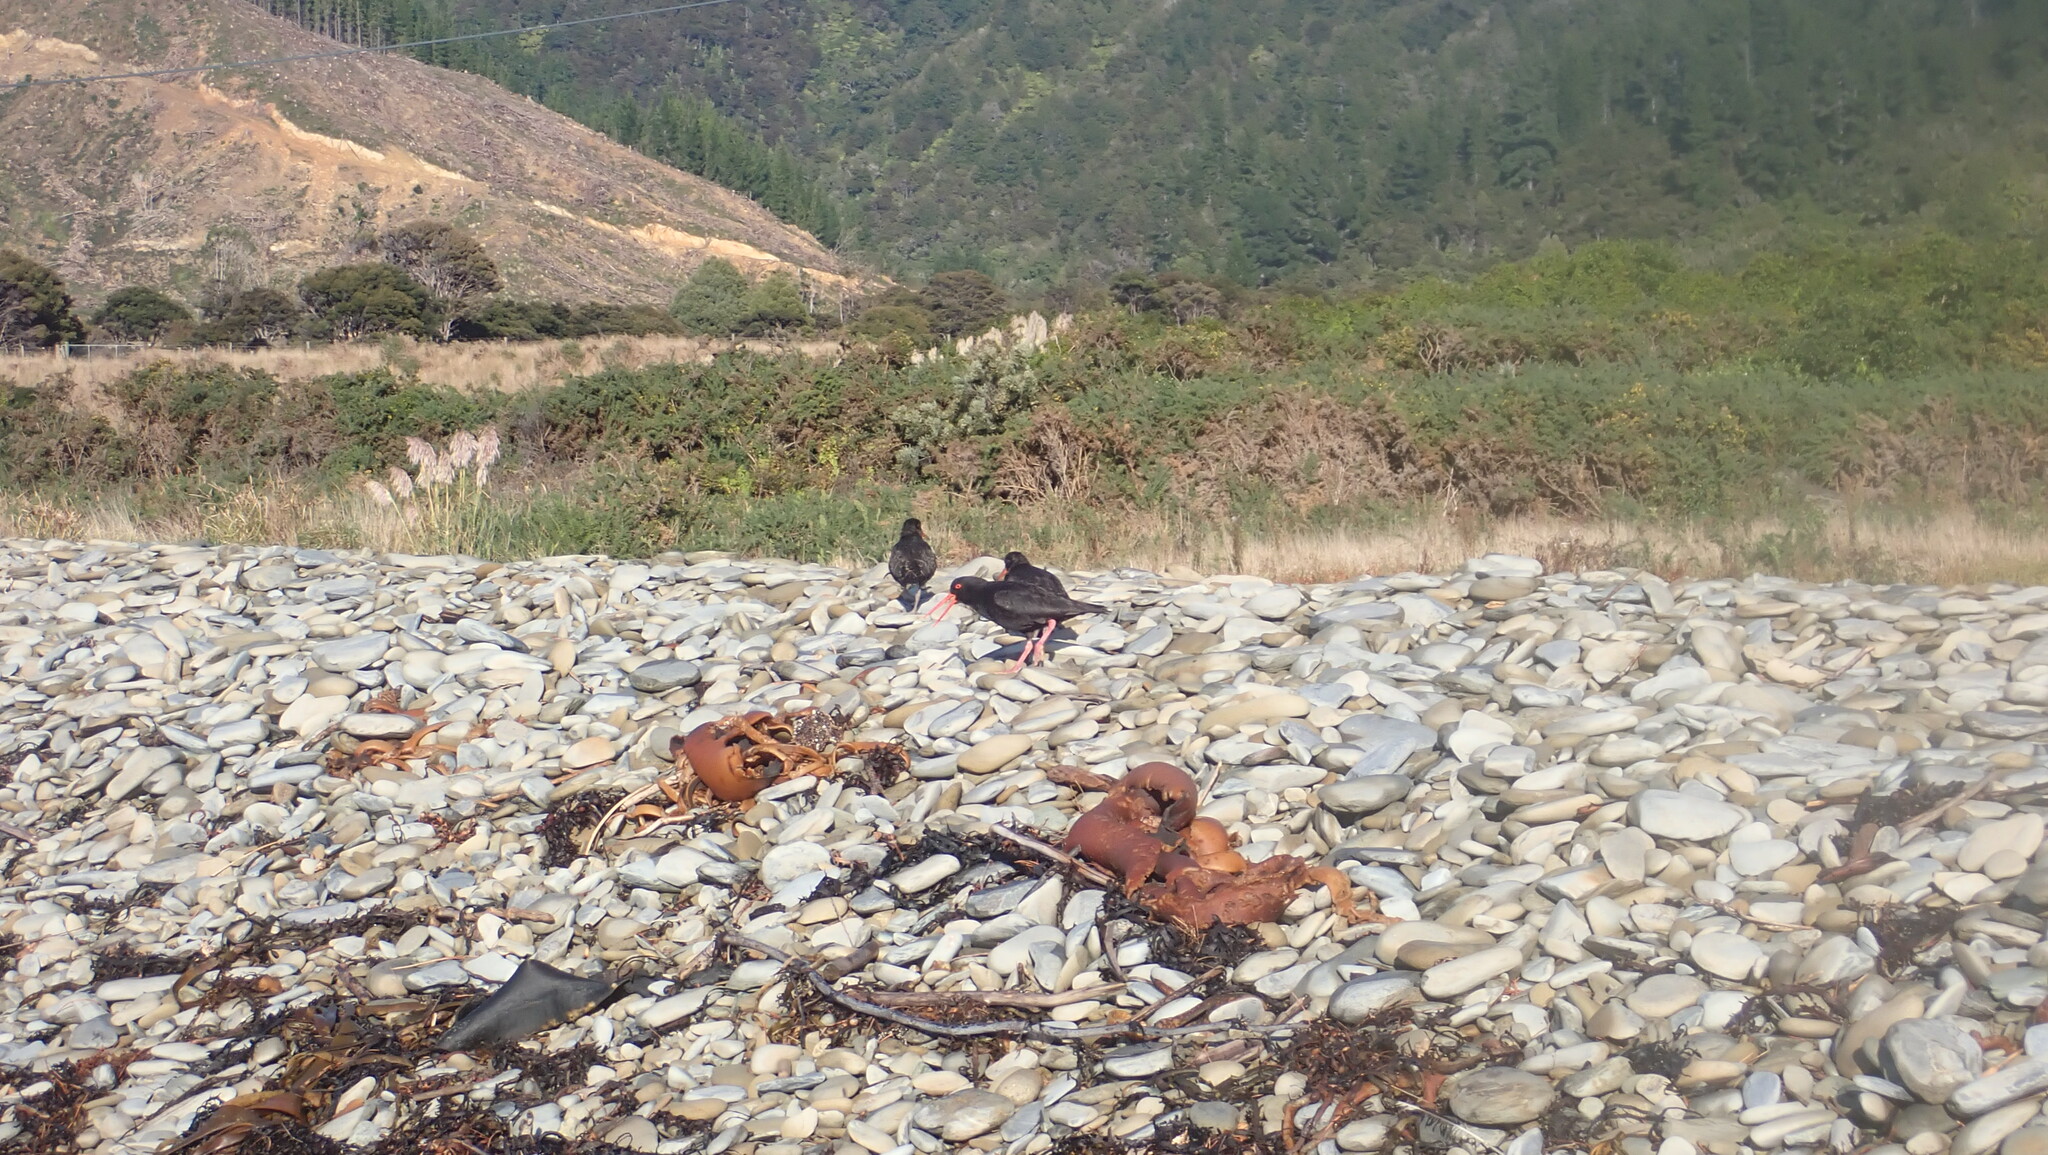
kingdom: Animalia
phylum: Chordata
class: Aves
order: Charadriiformes
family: Haematopodidae
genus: Haematopus
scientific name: Haematopus unicolor
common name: Variable oystercatcher
